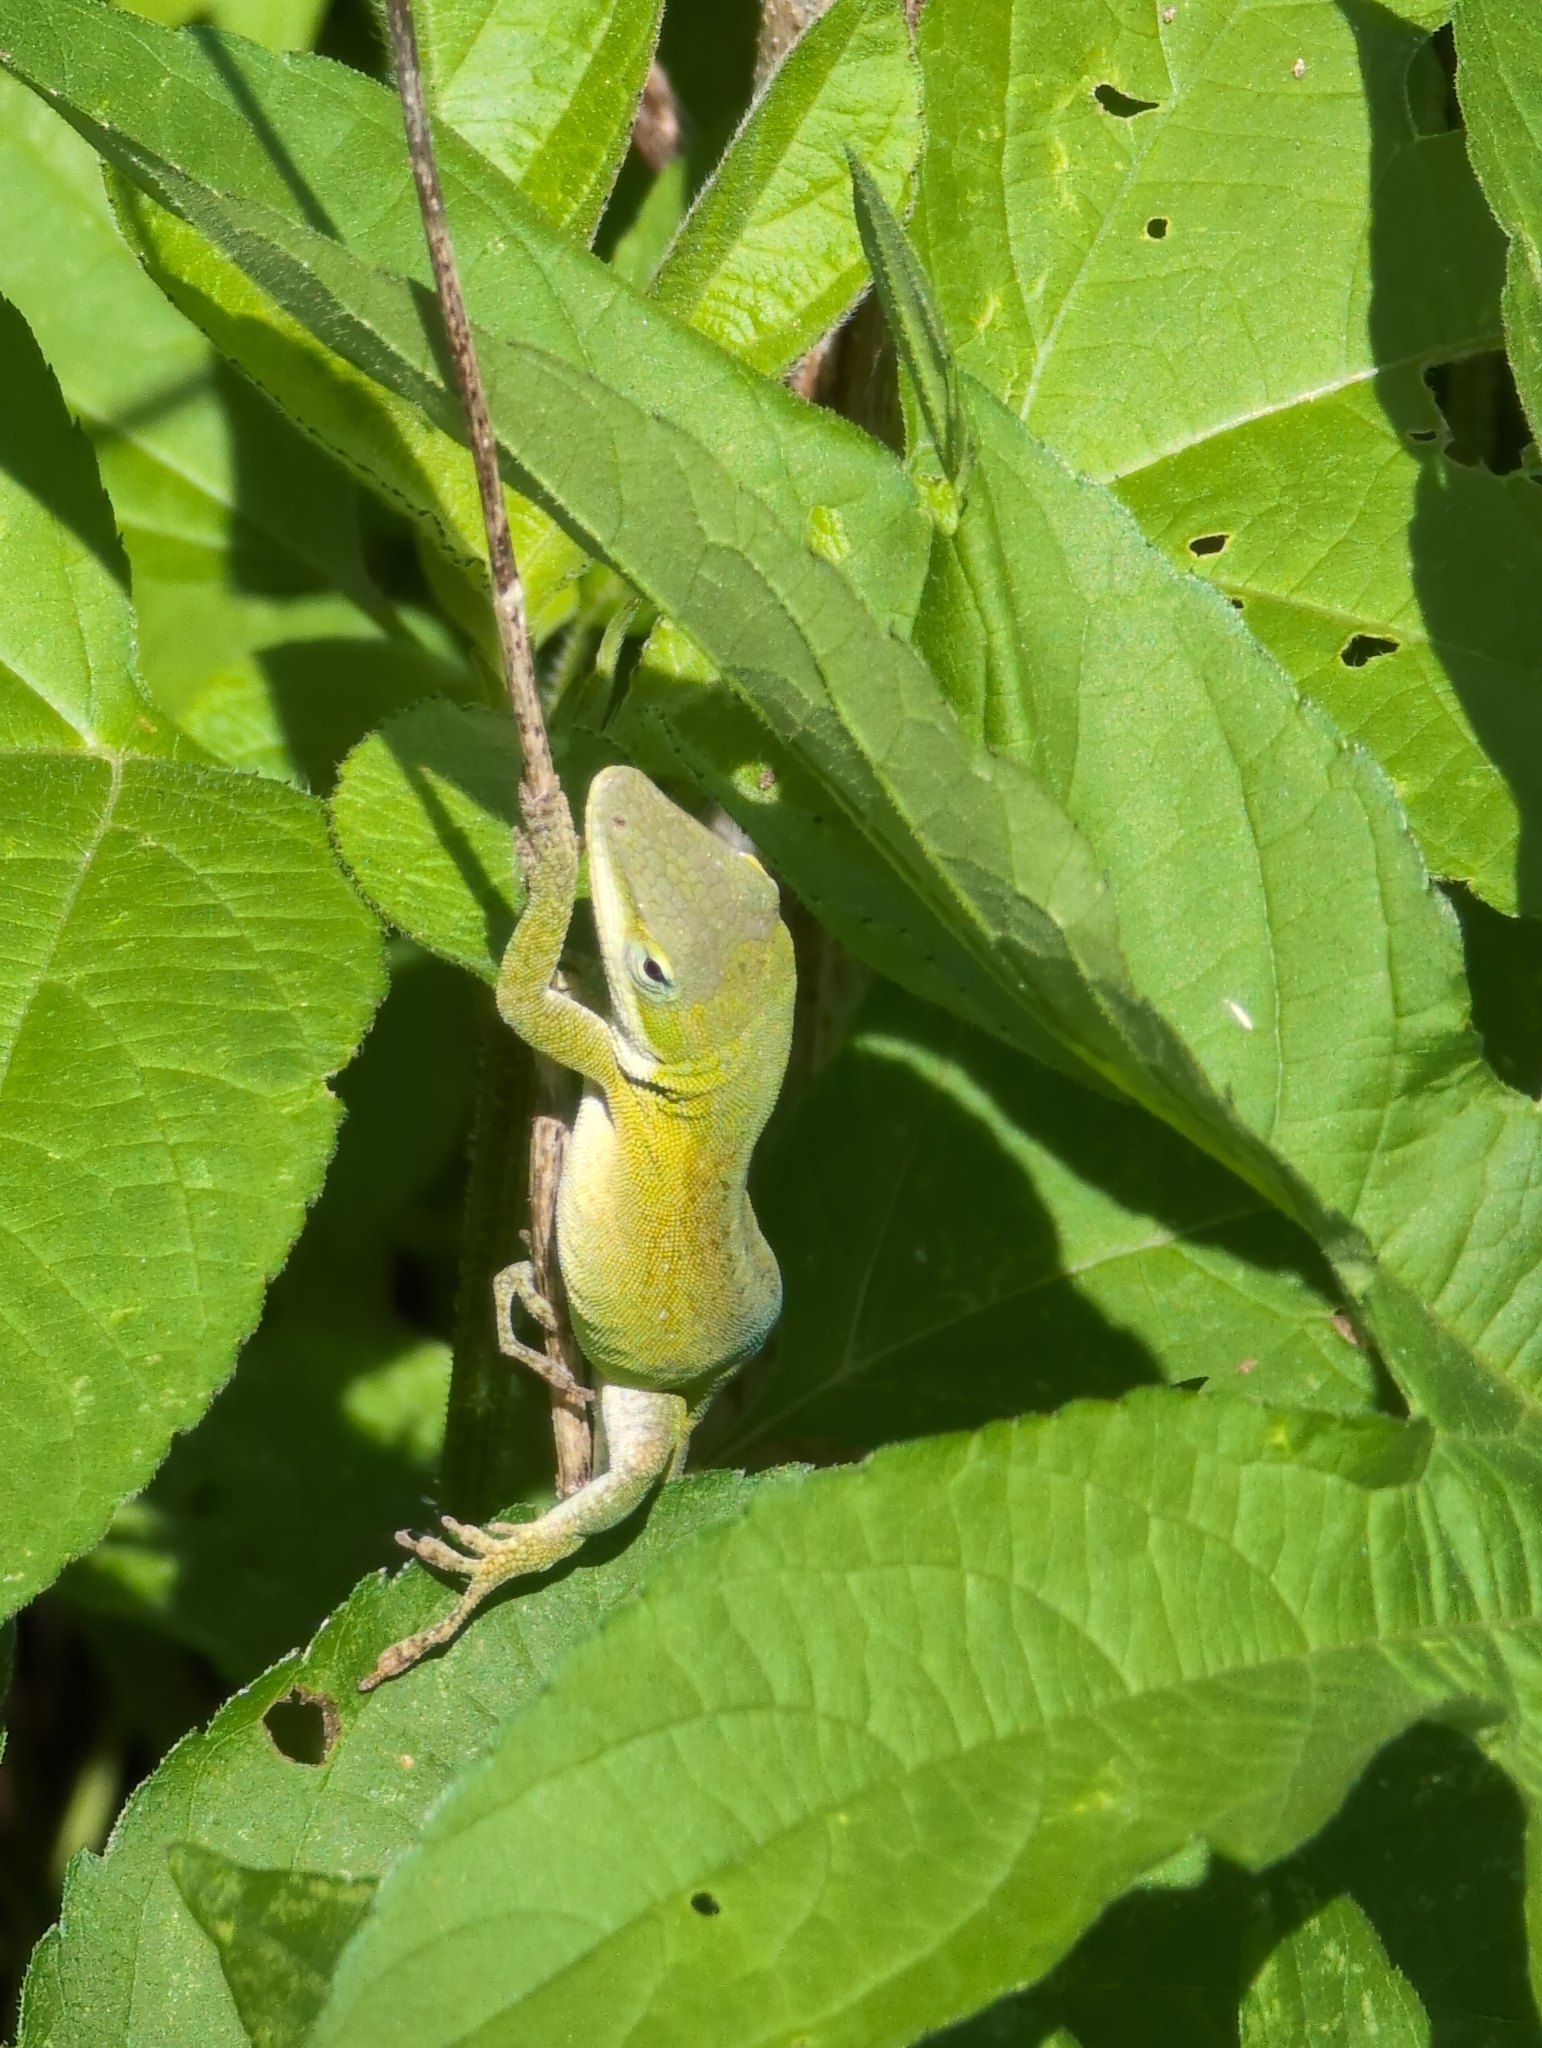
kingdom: Animalia
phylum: Chordata
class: Squamata
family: Dactyloidae
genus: Anolis
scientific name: Anolis carolinensis
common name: Green anole
